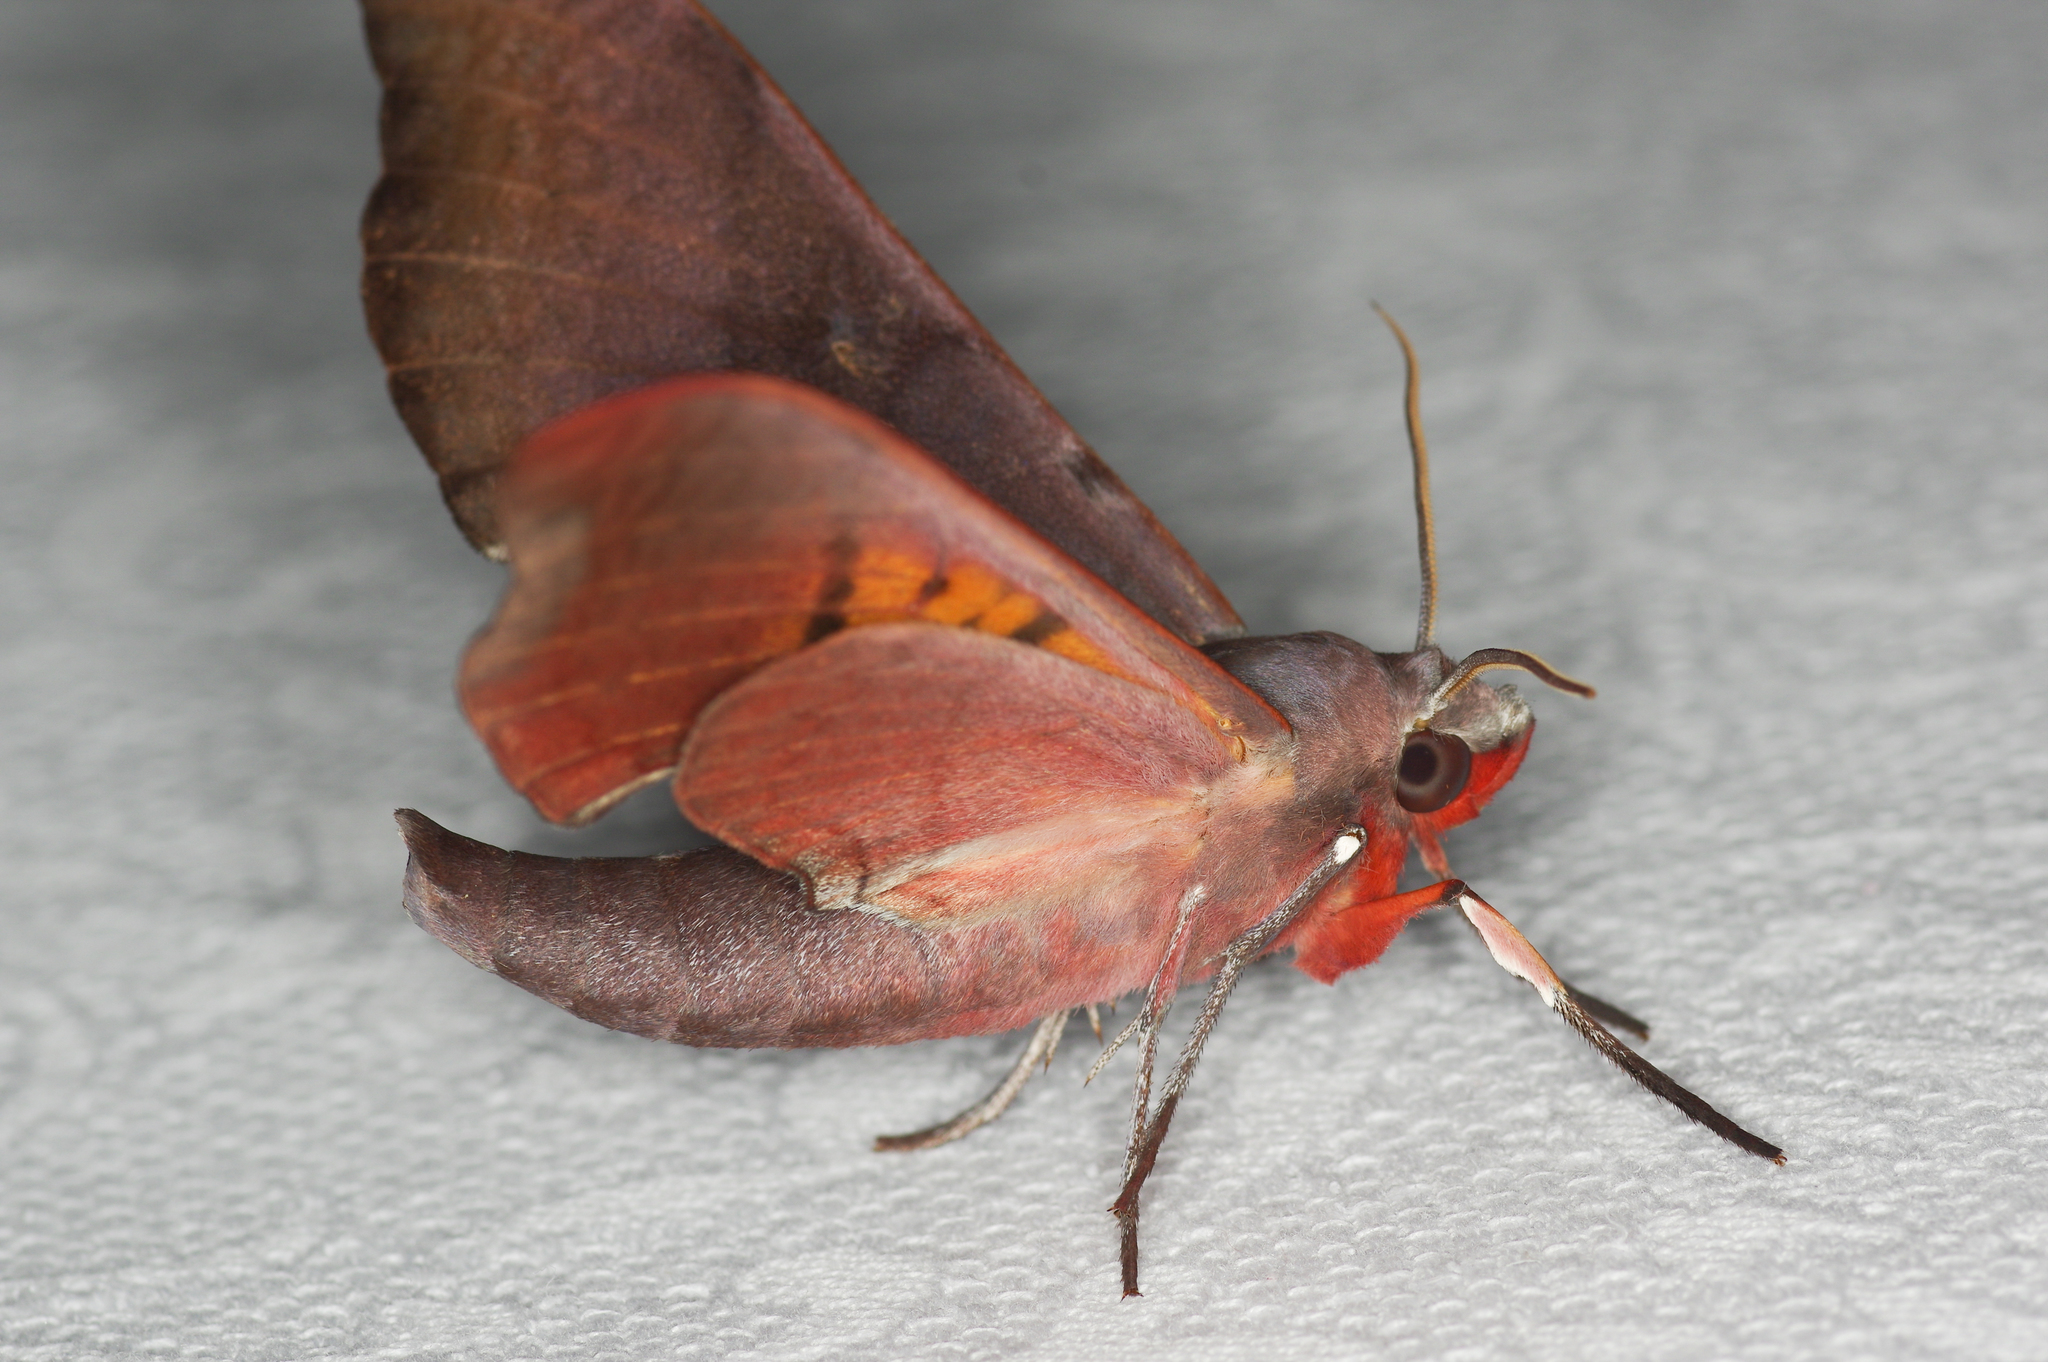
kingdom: Animalia
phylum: Arthropoda
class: Insecta
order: Lepidoptera
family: Sphingidae
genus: Compsulyx
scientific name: Compsulyx cochereaui
